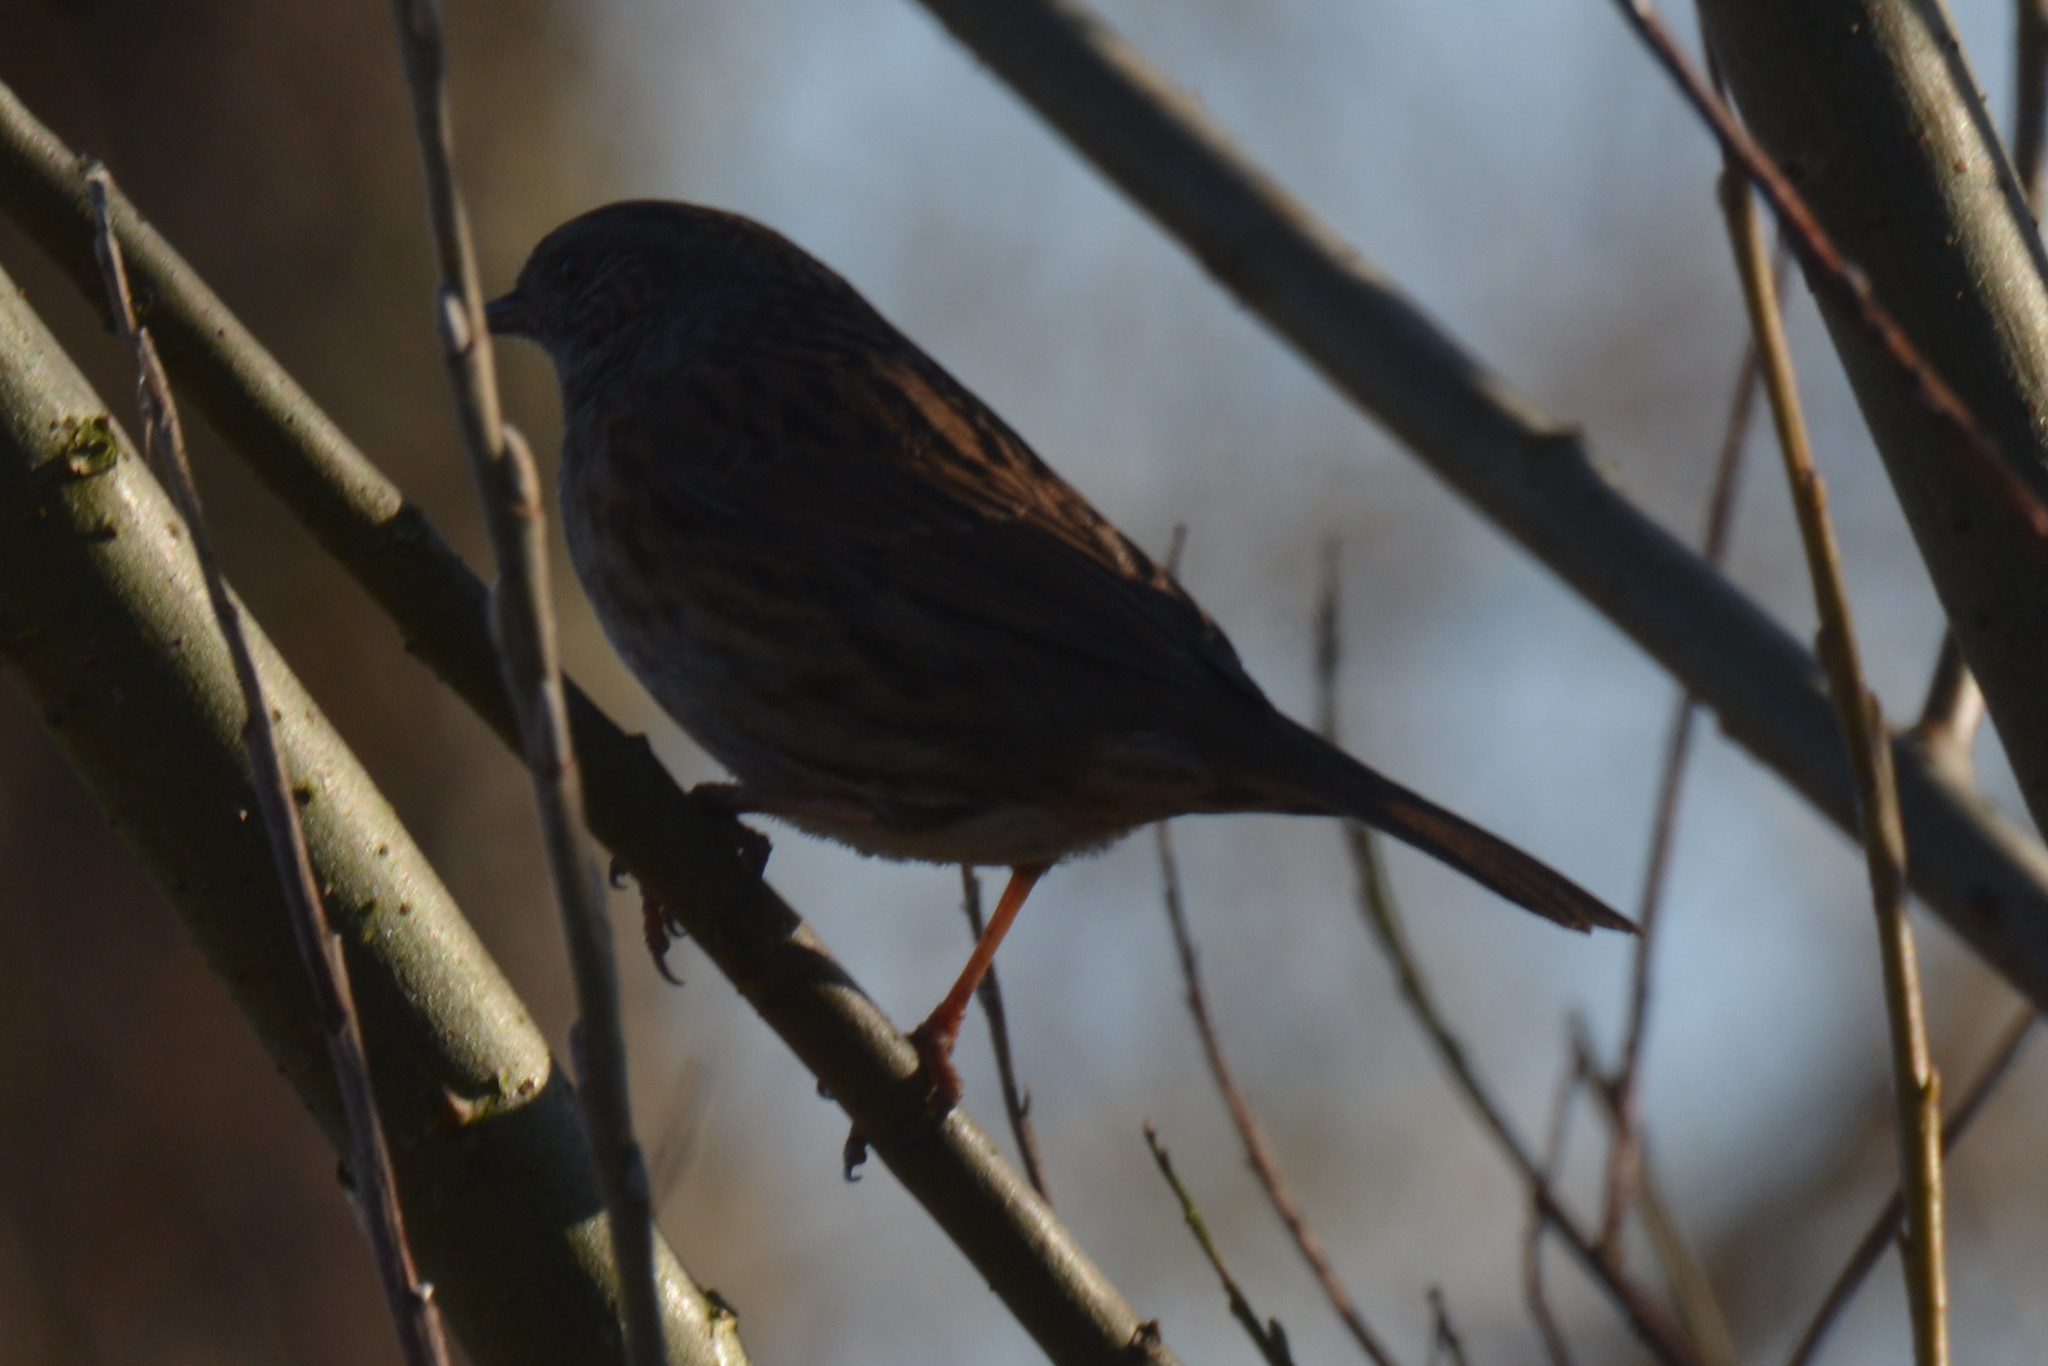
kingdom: Animalia
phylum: Chordata
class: Aves
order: Passeriformes
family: Prunellidae
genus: Prunella
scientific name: Prunella modularis
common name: Dunnock
